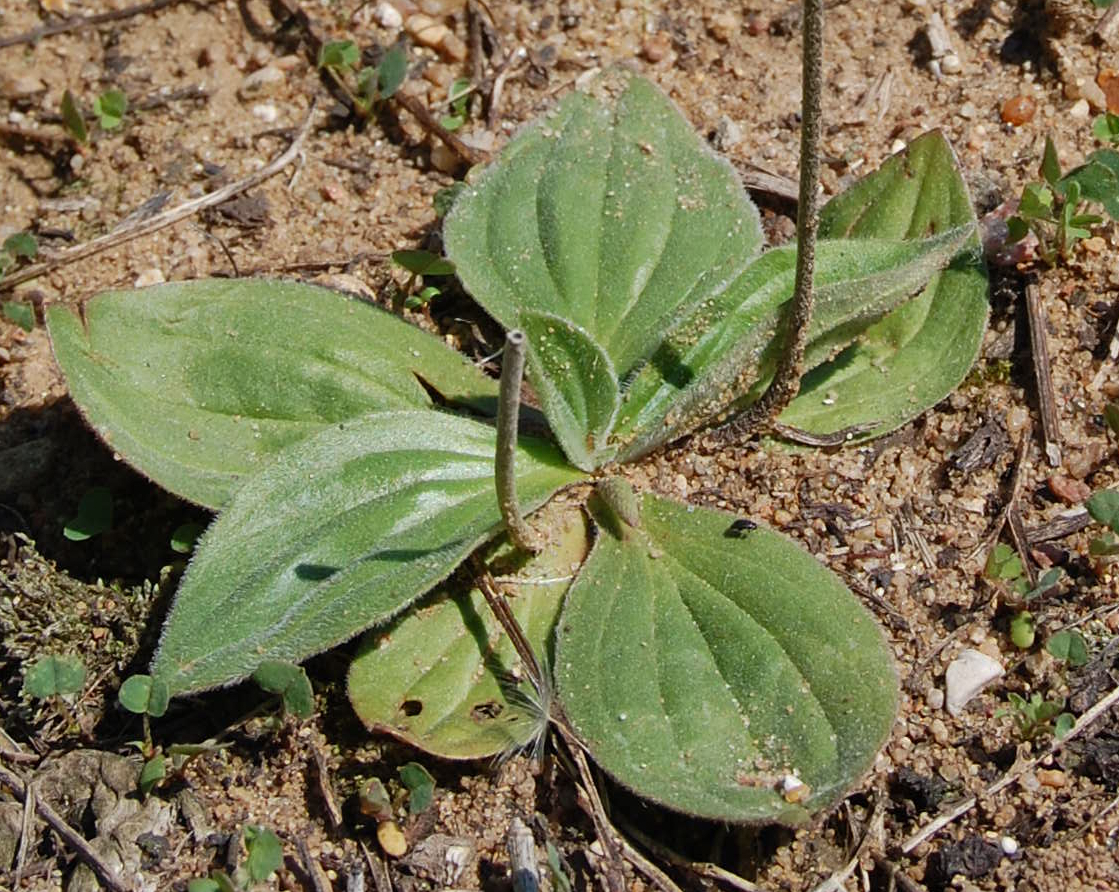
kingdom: Plantae
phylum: Tracheophyta
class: Magnoliopsida
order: Lamiales
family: Plantaginaceae
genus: Plantago
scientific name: Plantago media
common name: Hoary plantain
